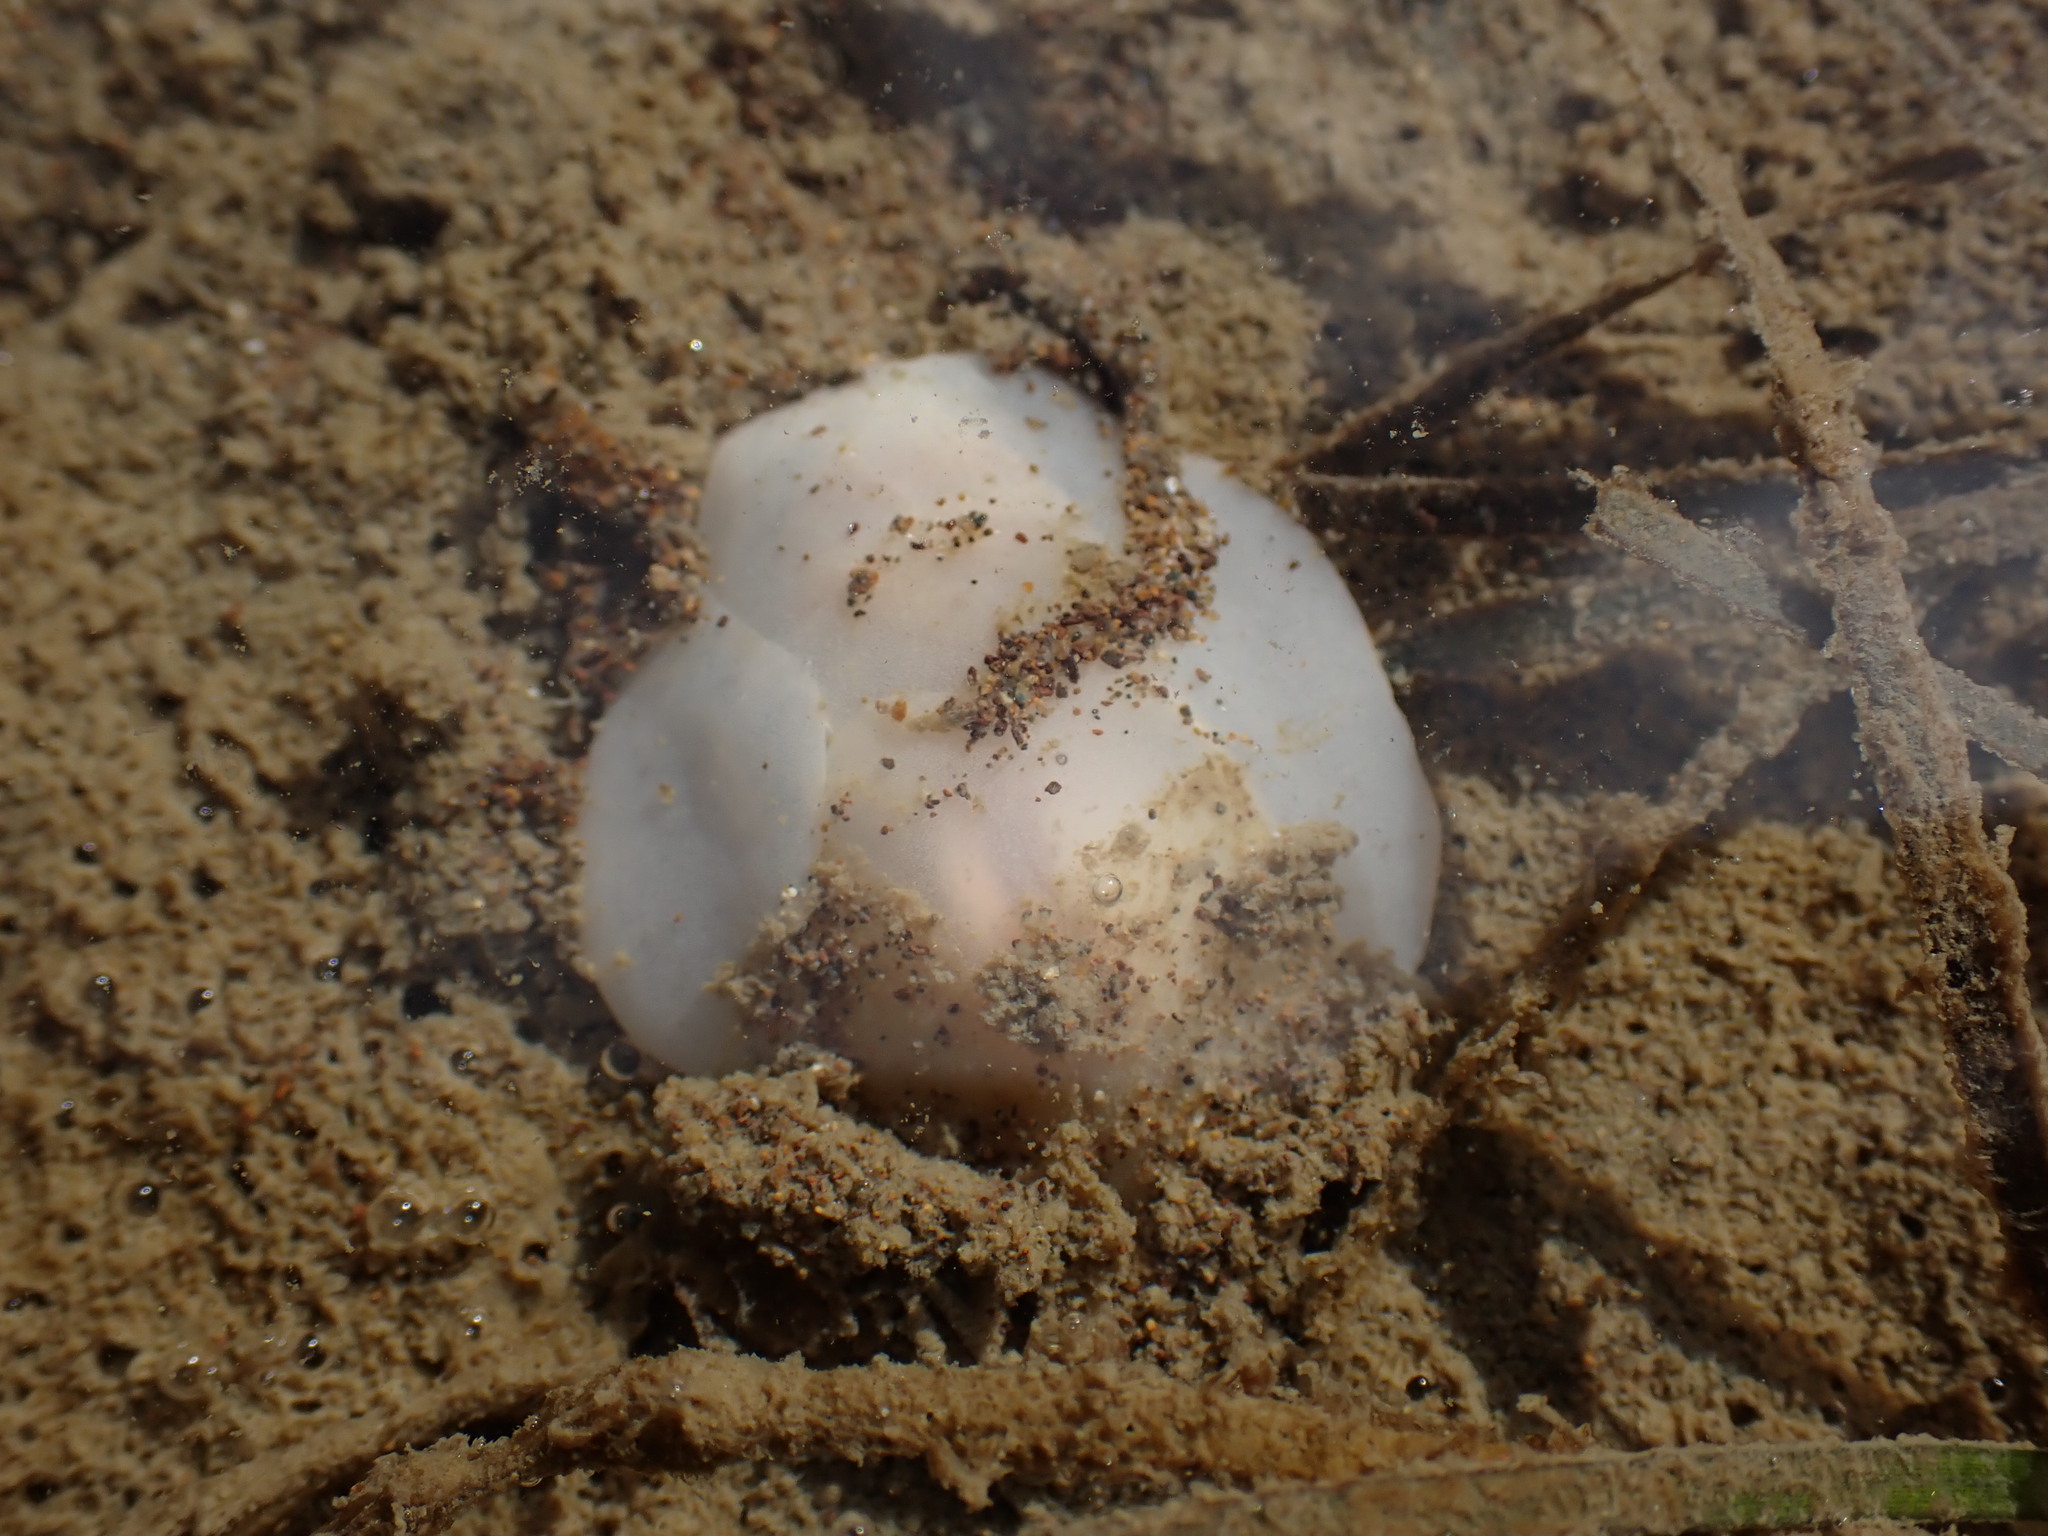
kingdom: Animalia
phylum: Mollusca
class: Gastropoda
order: Cephalaspidea
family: Philinidae
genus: Philine
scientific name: Philine angasi
